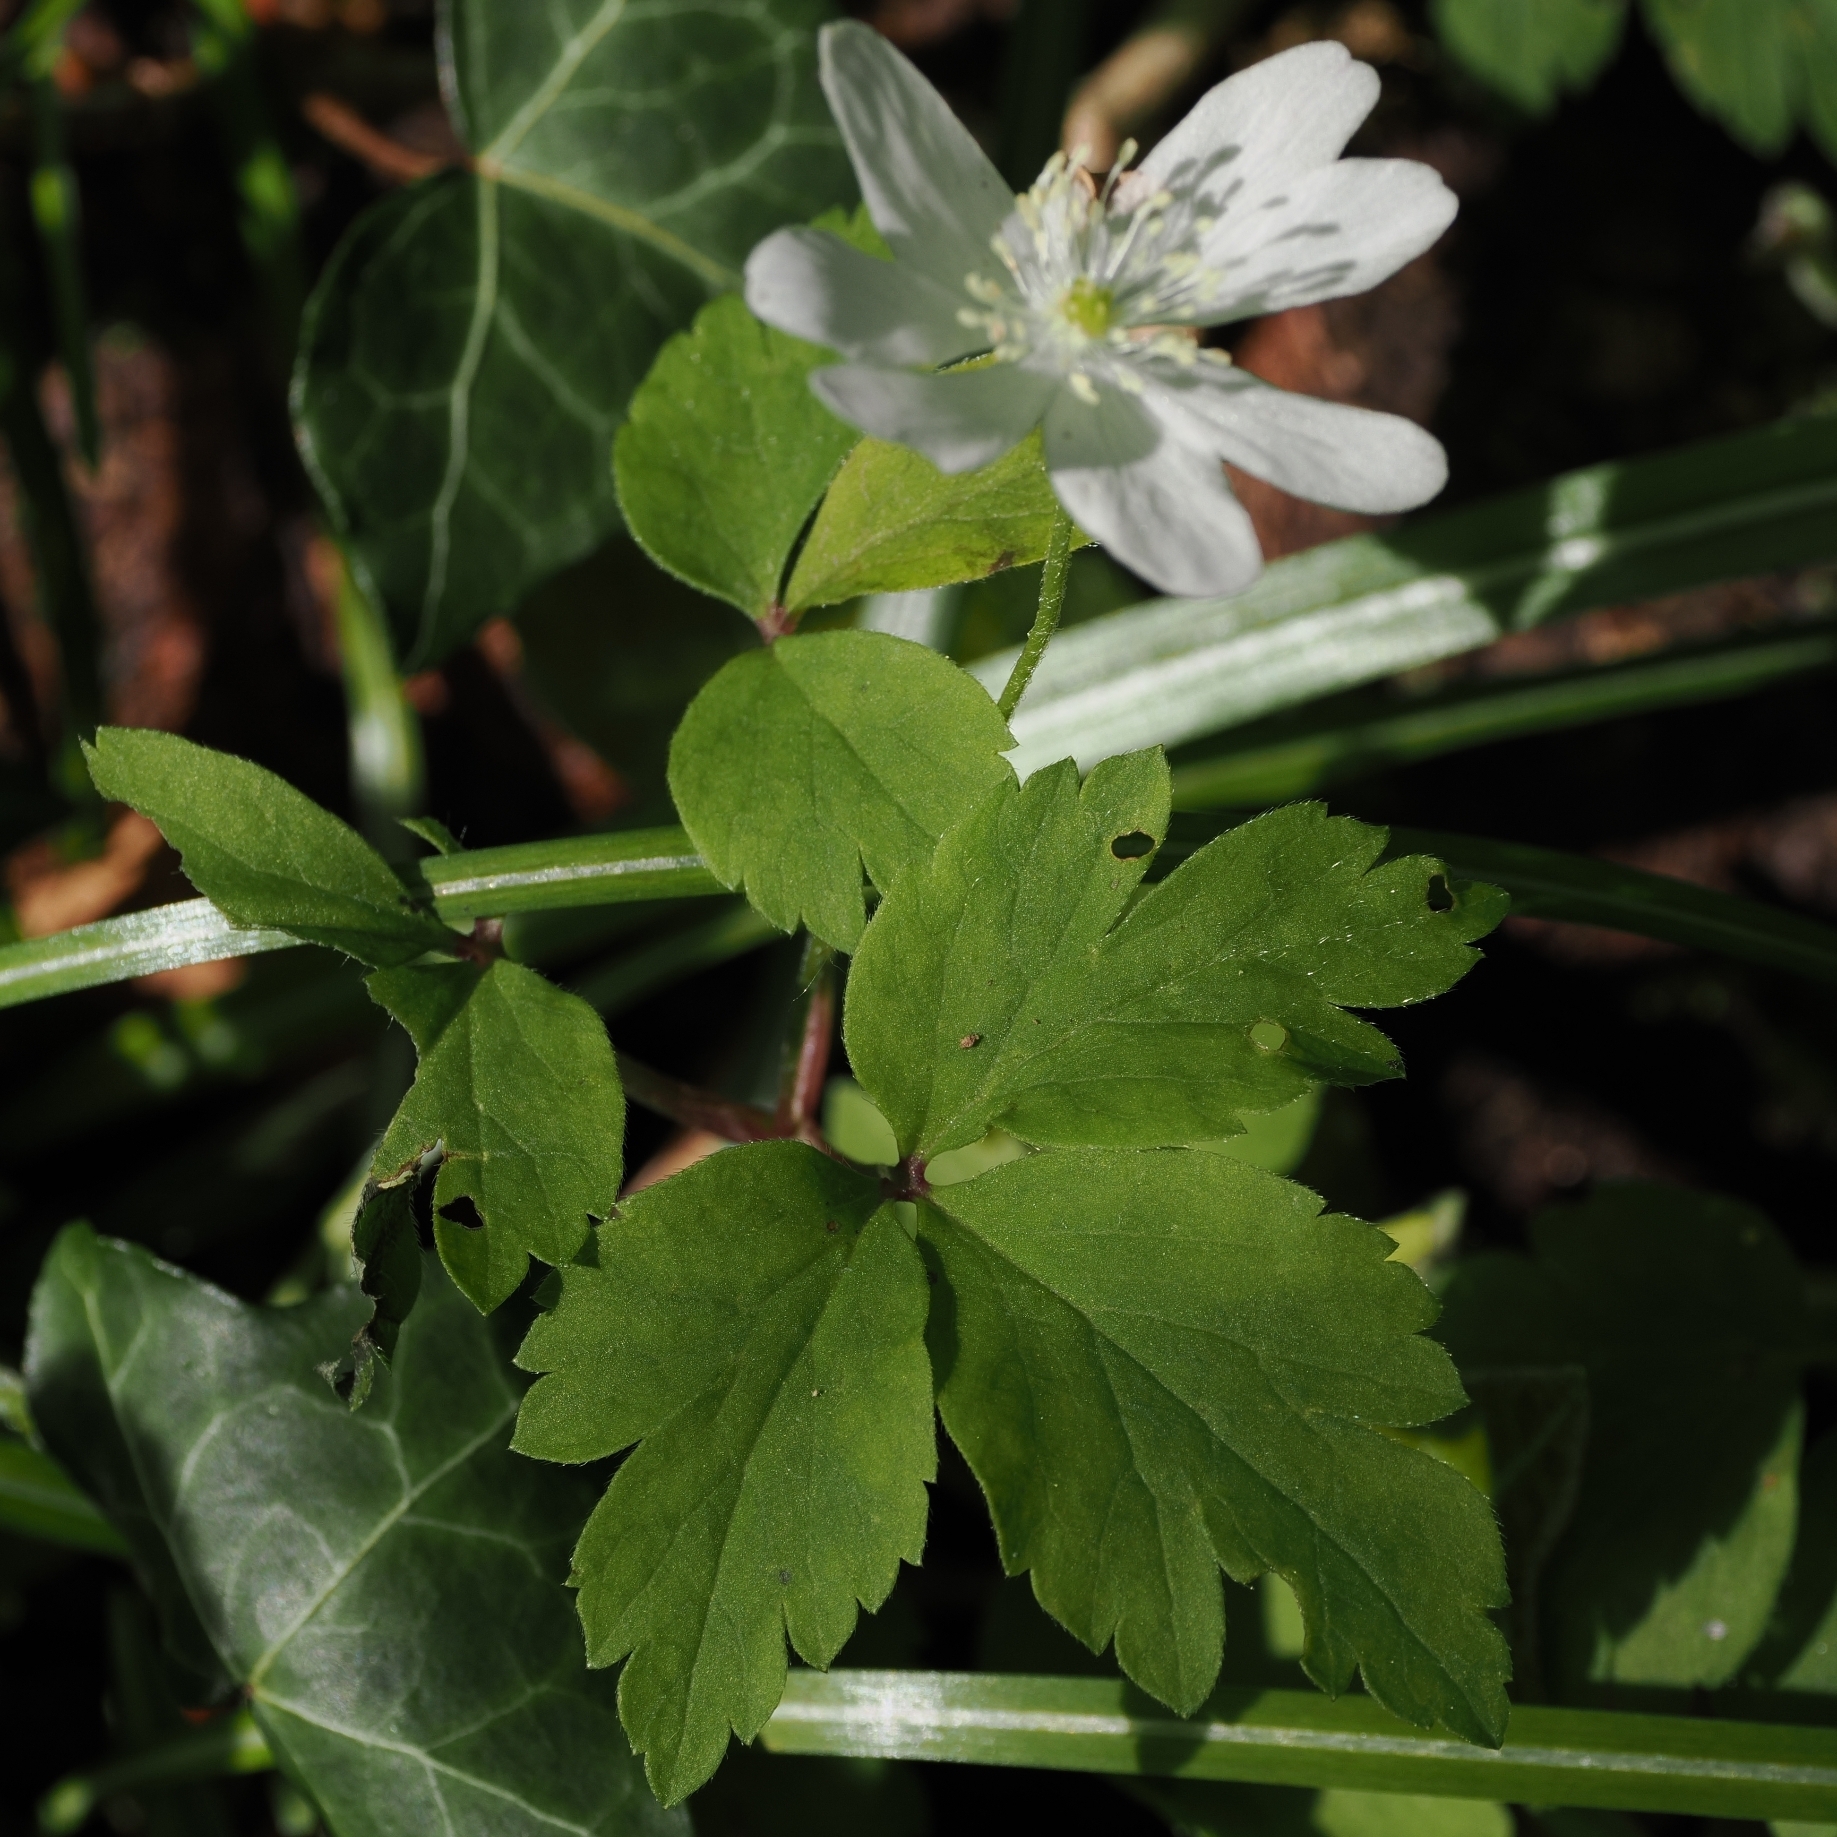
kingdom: Plantae
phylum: Tracheophyta
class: Magnoliopsida
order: Ranunculales
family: Ranunculaceae
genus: Anemone
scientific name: Anemone pittonii
